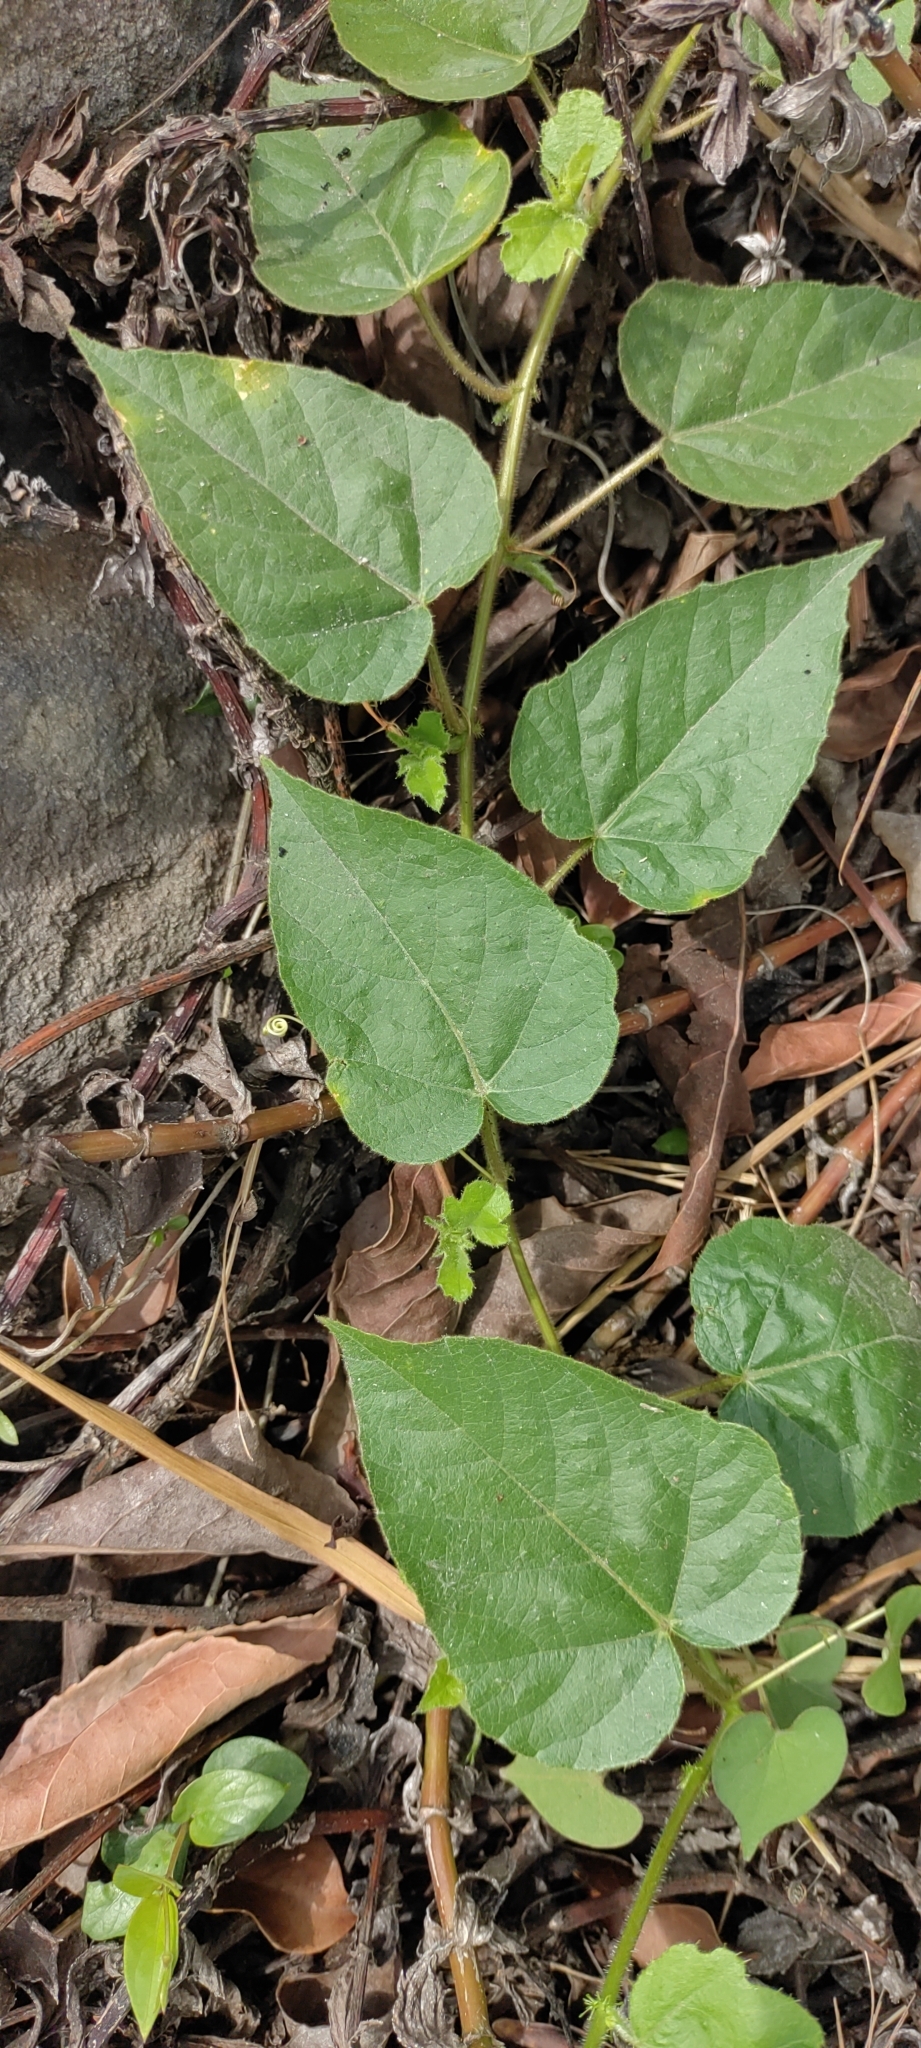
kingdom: Plantae
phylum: Tracheophyta
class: Magnoliopsida
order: Malpighiales
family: Passifloraceae
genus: Passiflora
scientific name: Passiflora vesicaria
